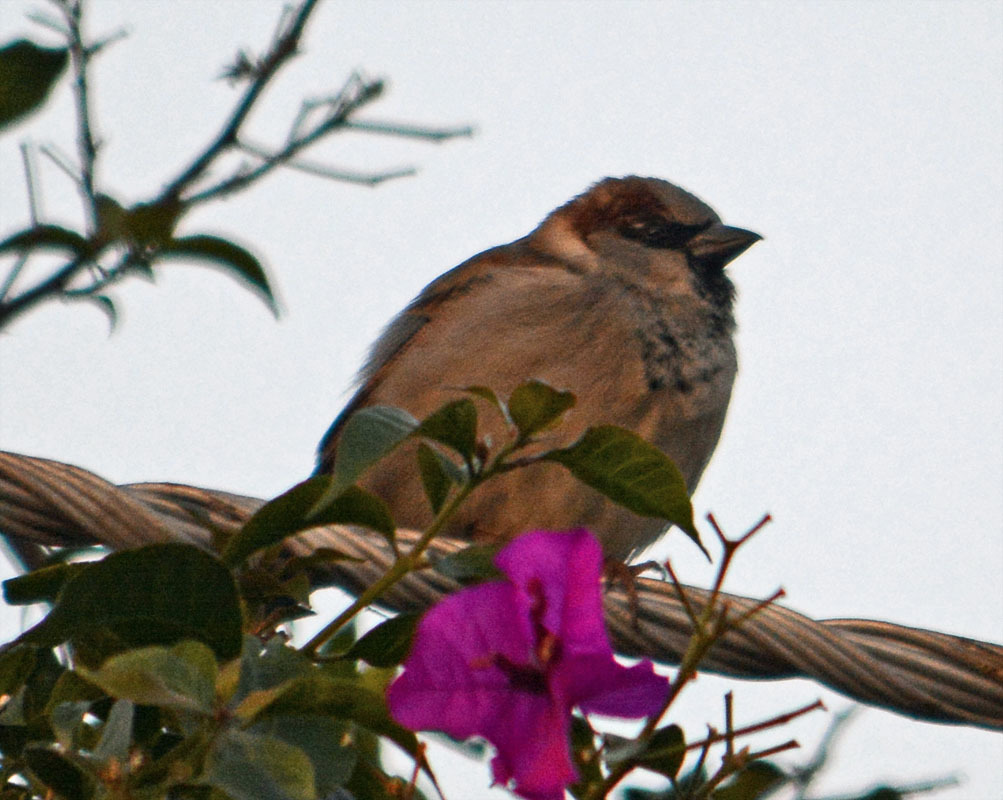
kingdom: Animalia
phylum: Chordata
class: Aves
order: Passeriformes
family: Passeridae
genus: Passer
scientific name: Passer domesticus
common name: House sparrow
